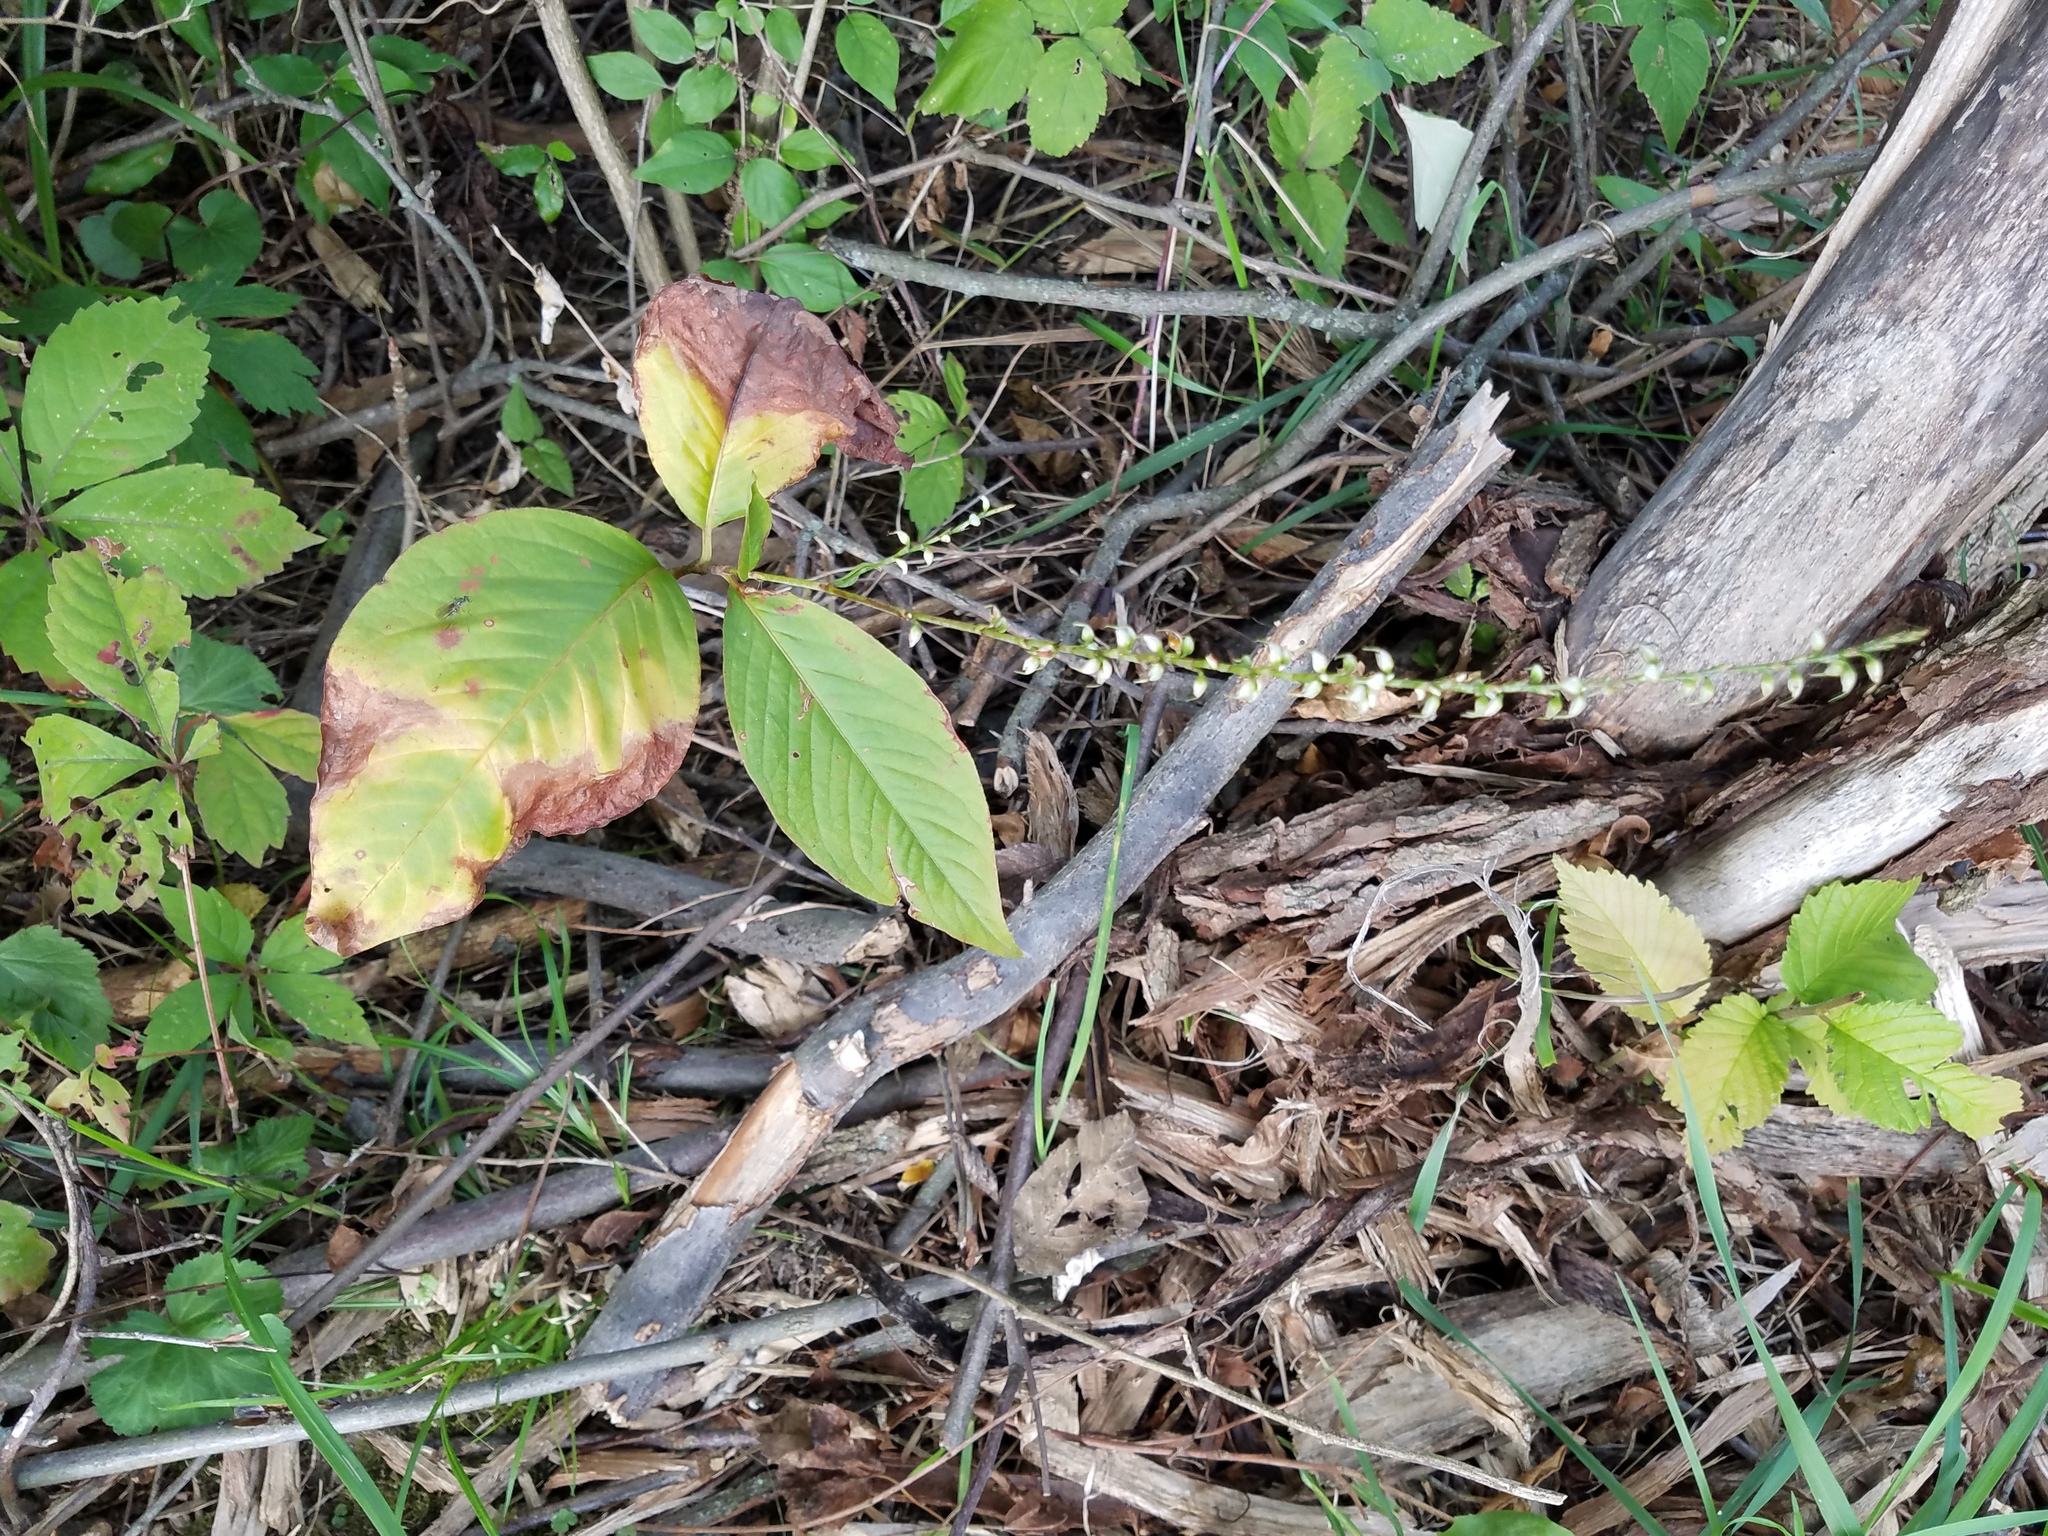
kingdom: Plantae
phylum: Tracheophyta
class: Magnoliopsida
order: Caryophyllales
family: Polygonaceae
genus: Persicaria
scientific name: Persicaria virginiana
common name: Jumpseed
